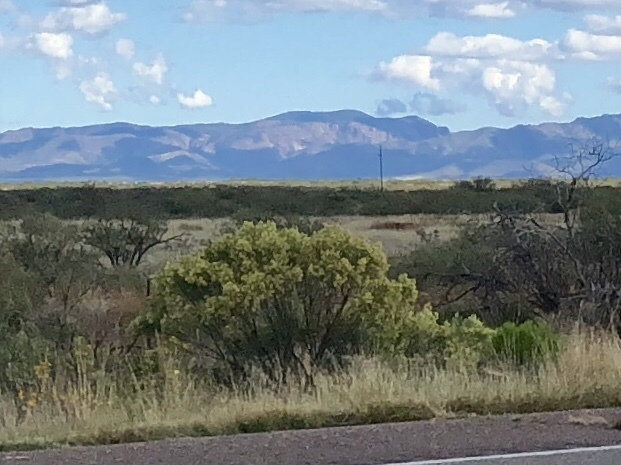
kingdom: Plantae
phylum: Tracheophyta
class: Magnoliopsida
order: Asterales
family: Asteraceae
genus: Baccharis
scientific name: Baccharis sarothroides
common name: Desert-broom
